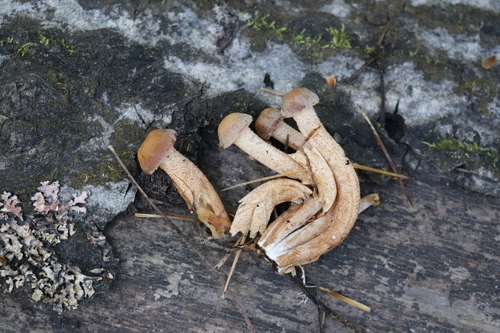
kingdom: Fungi
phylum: Basidiomycota
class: Agaricomycetes
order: Agaricales
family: Physalacriaceae
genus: Armillaria
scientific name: Armillaria
